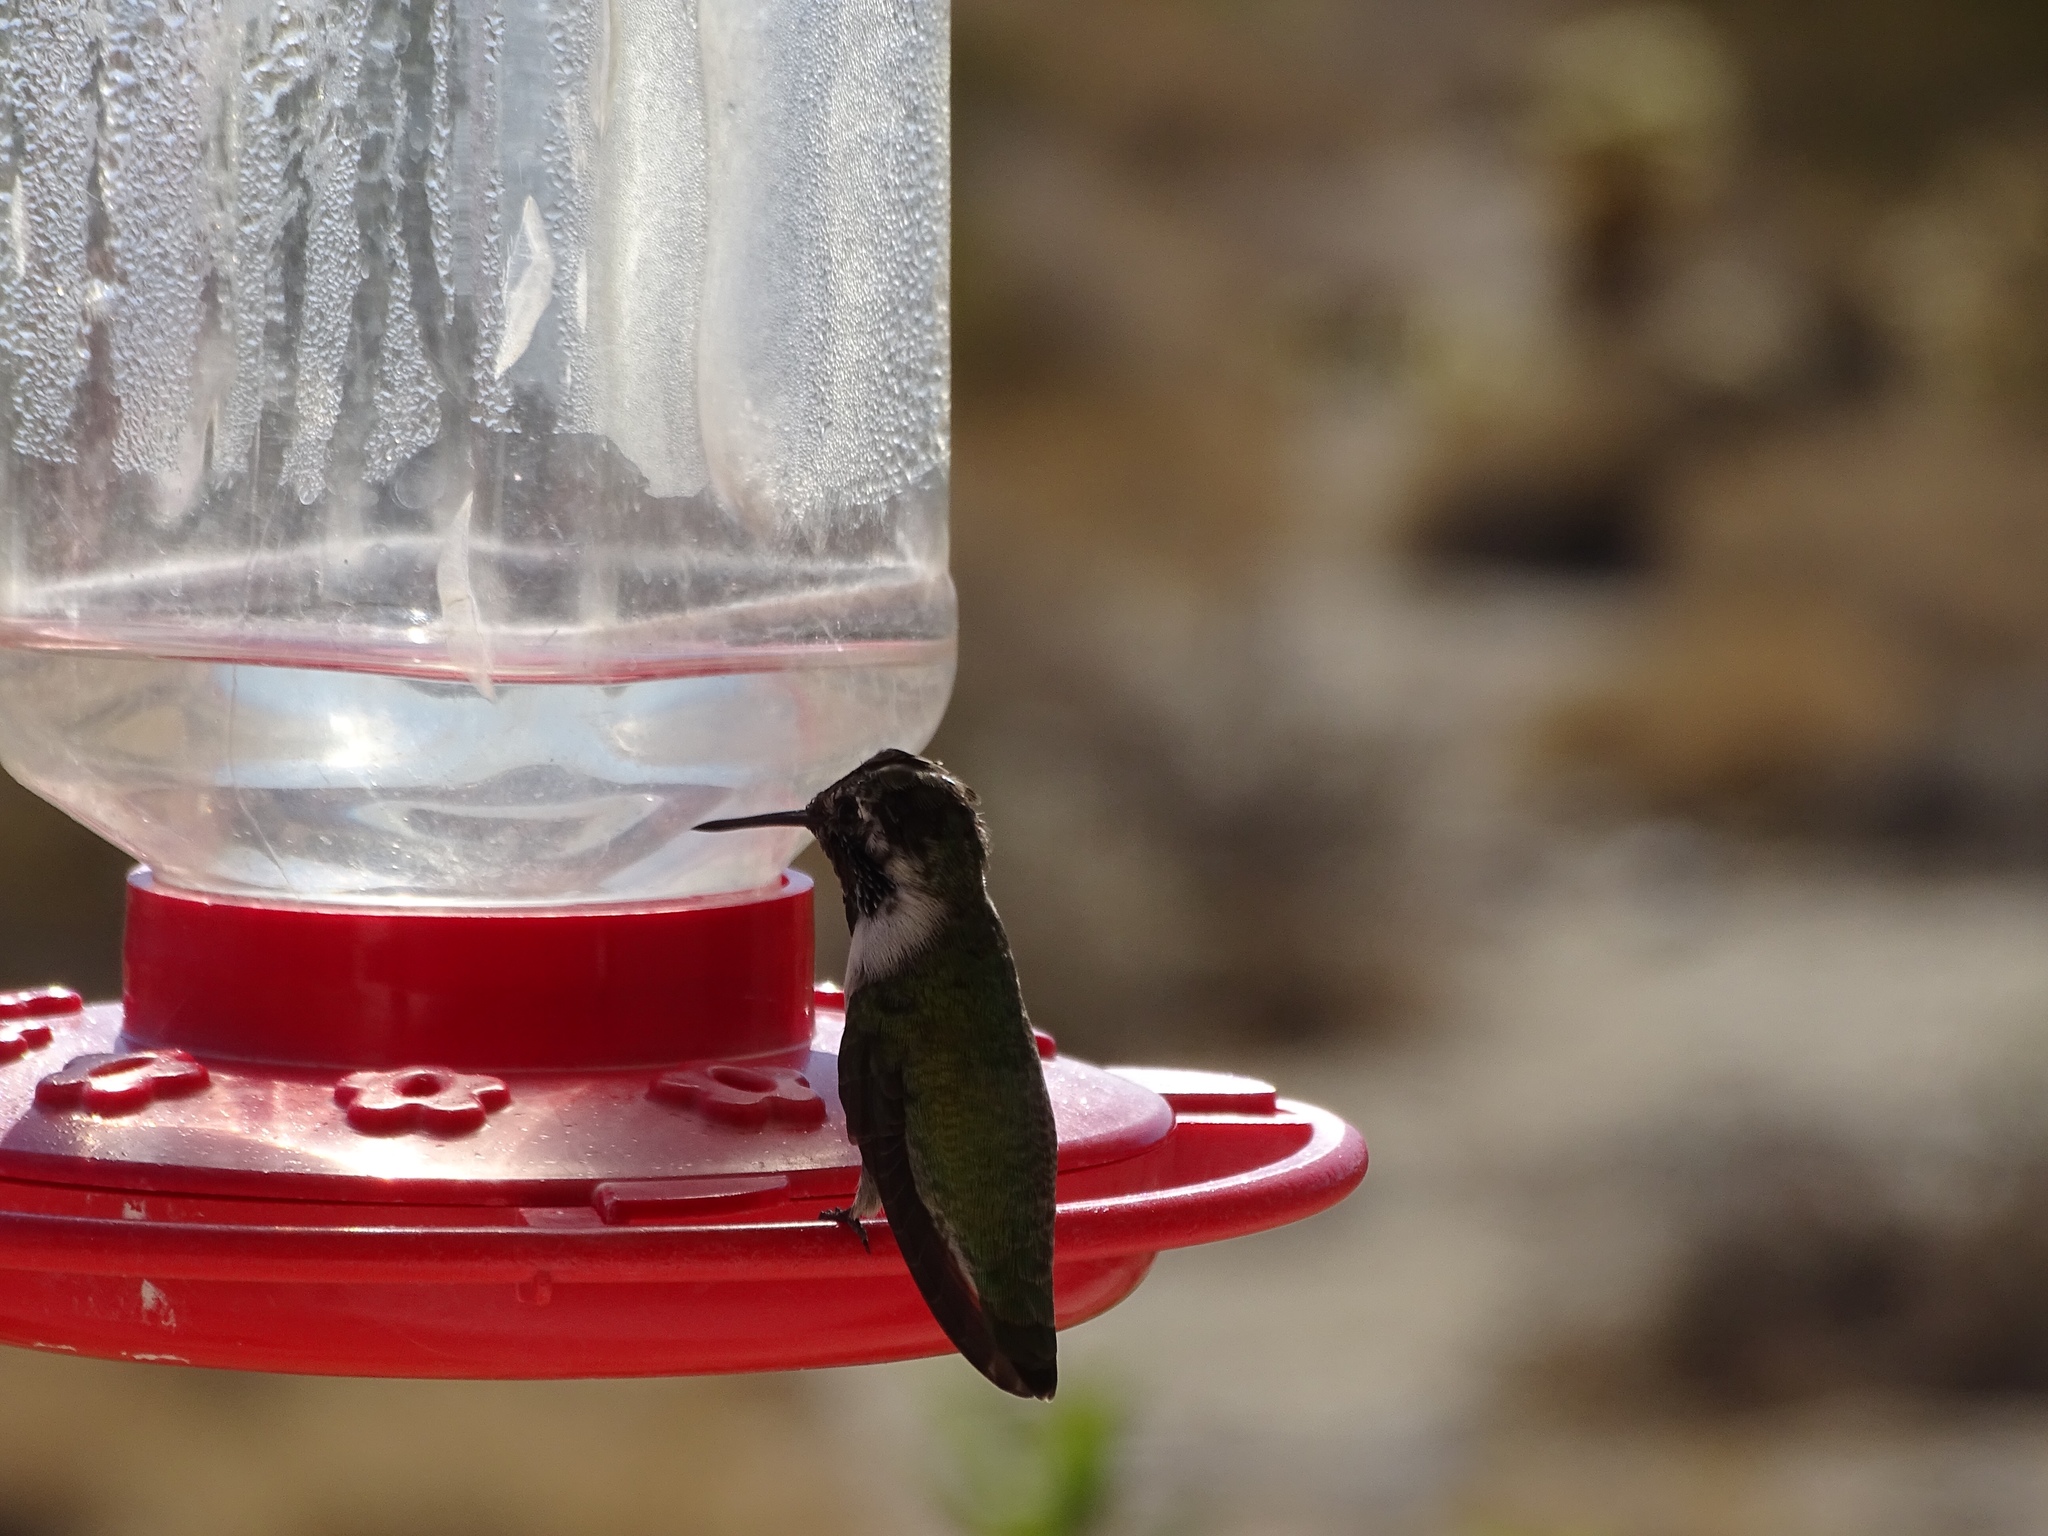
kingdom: Animalia
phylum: Chordata
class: Aves
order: Apodiformes
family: Trochilidae
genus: Calypte
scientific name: Calypte costae
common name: Costa's hummingbird
